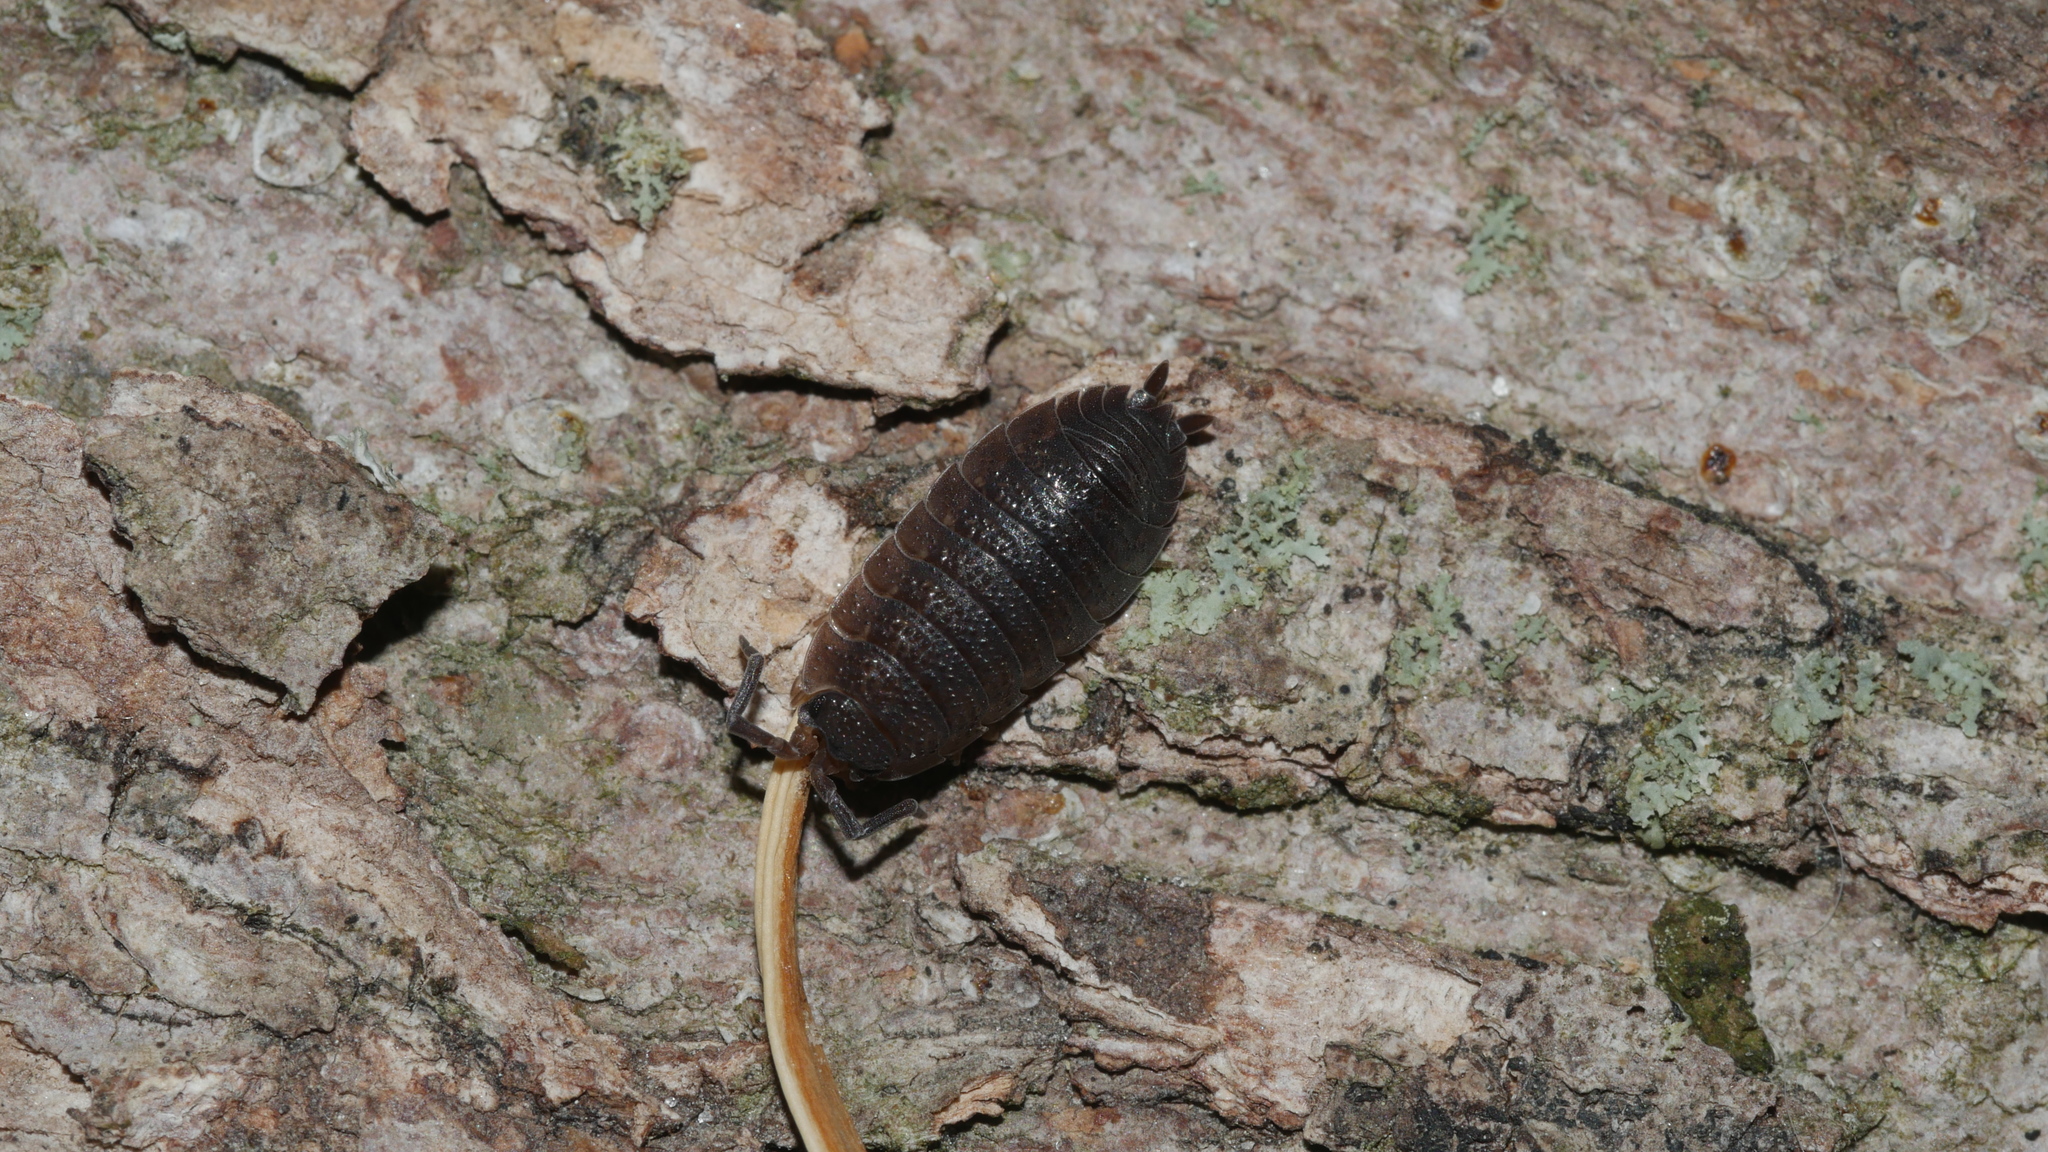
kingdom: Animalia
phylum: Arthropoda
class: Malacostraca
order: Isopoda
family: Porcellionidae
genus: Porcellio
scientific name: Porcellio scaber
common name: Common rough woodlouse
